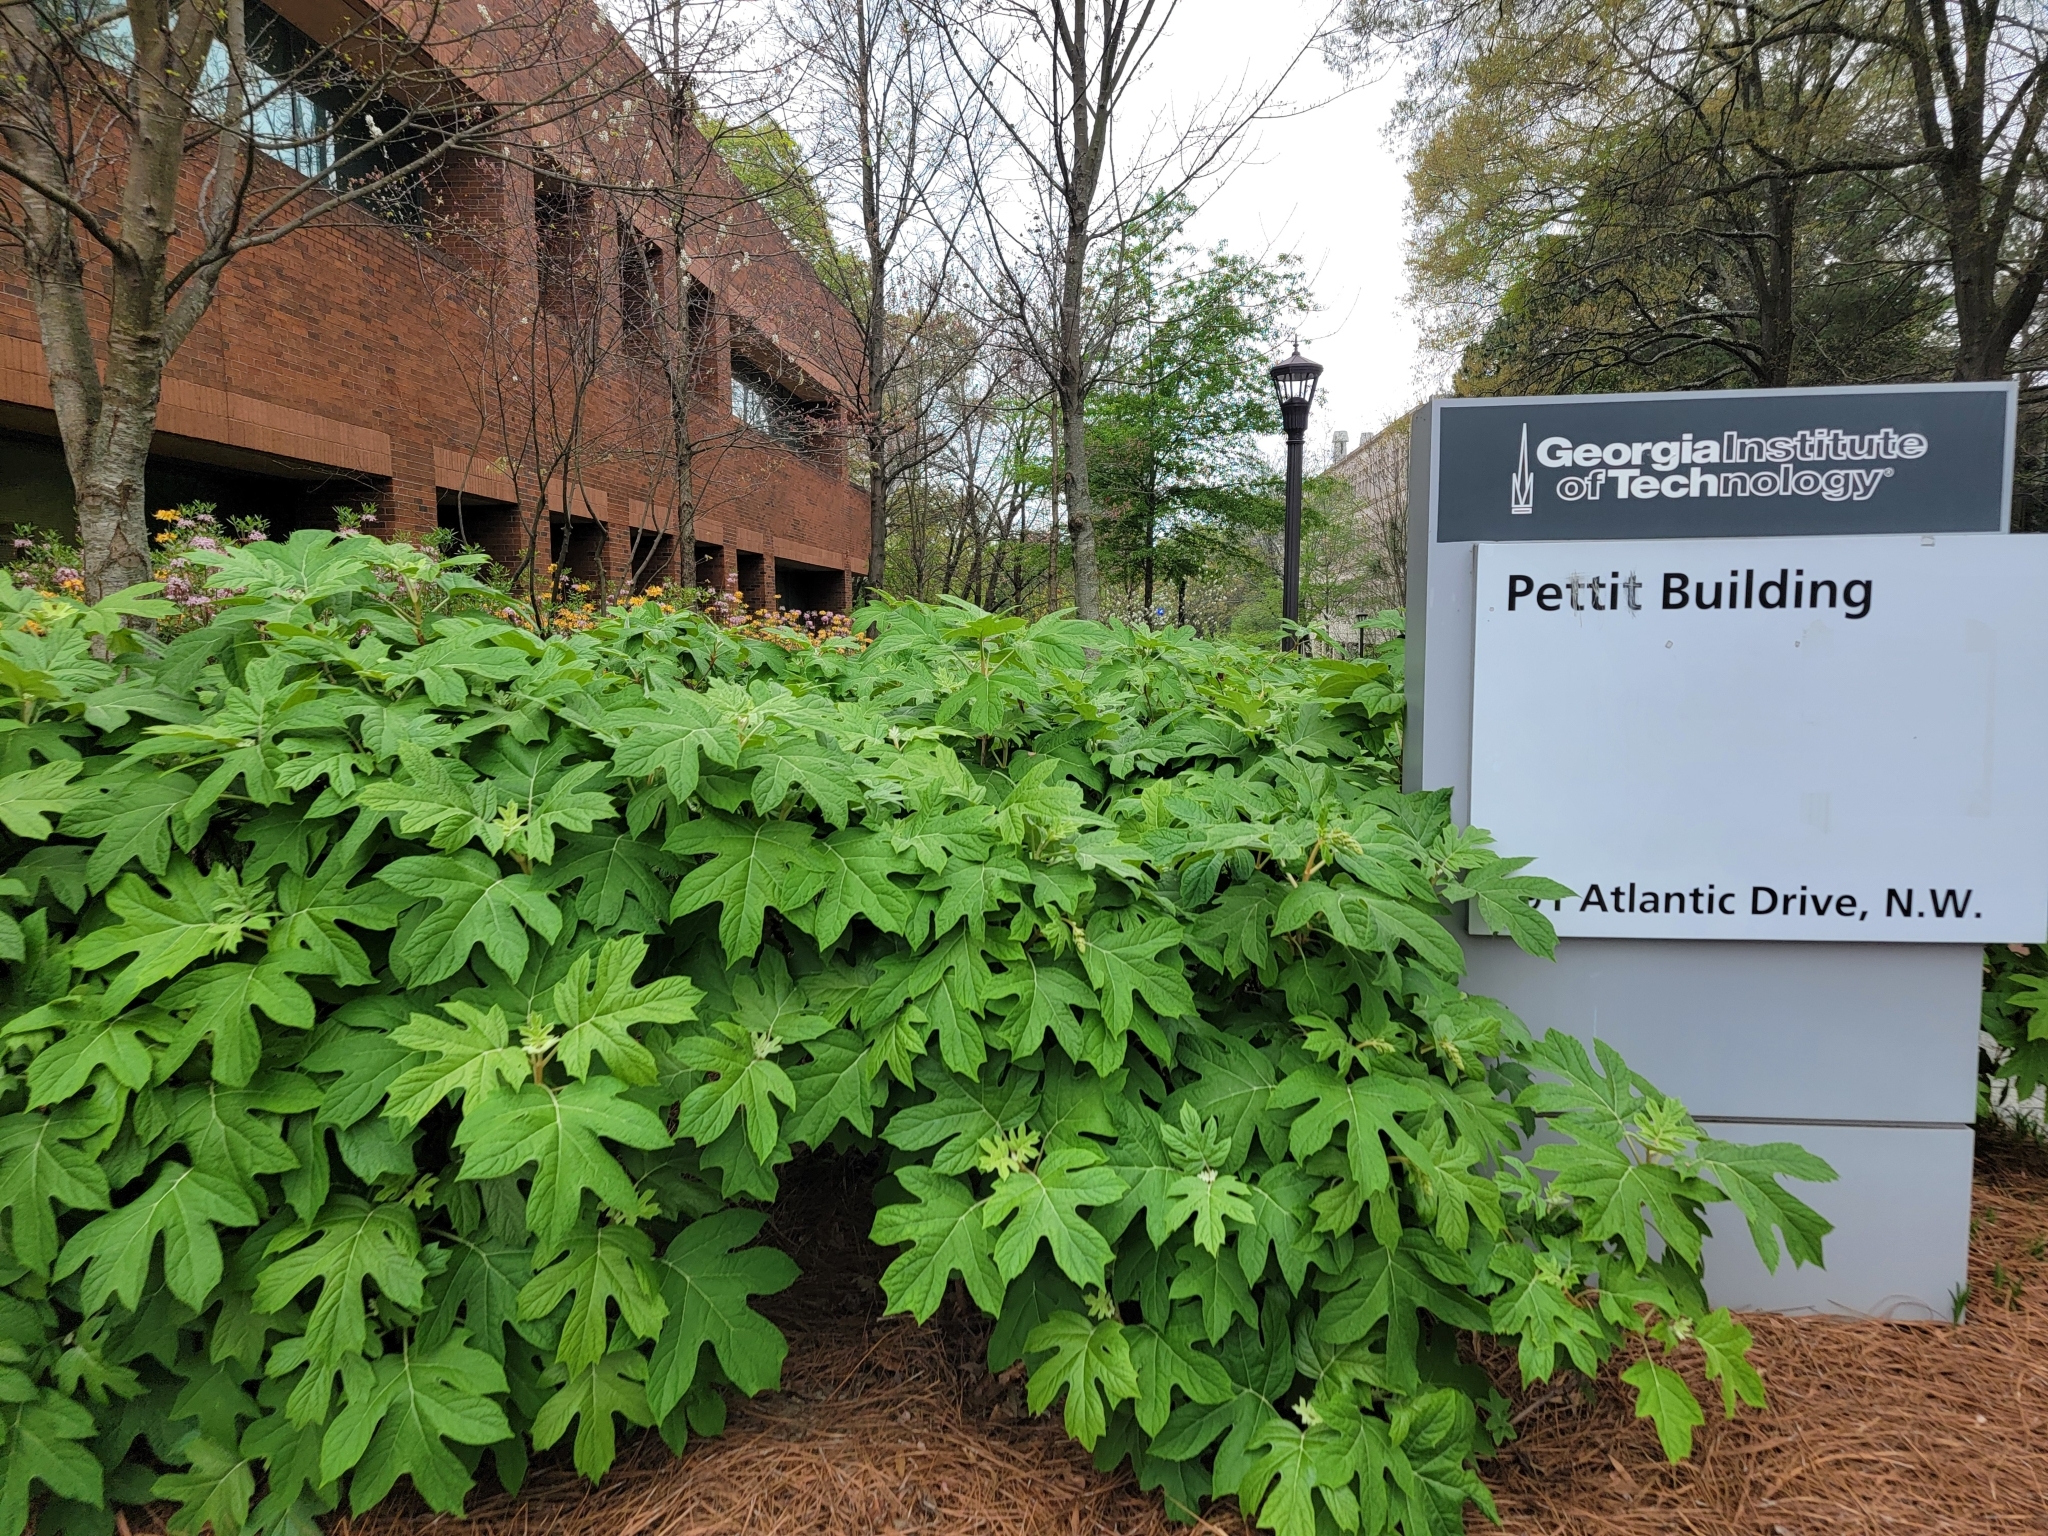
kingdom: Plantae
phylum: Tracheophyta
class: Magnoliopsida
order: Cornales
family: Hydrangeaceae
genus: Hydrangea
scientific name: Hydrangea quercifolia
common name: Oak-leaf hydrangea
